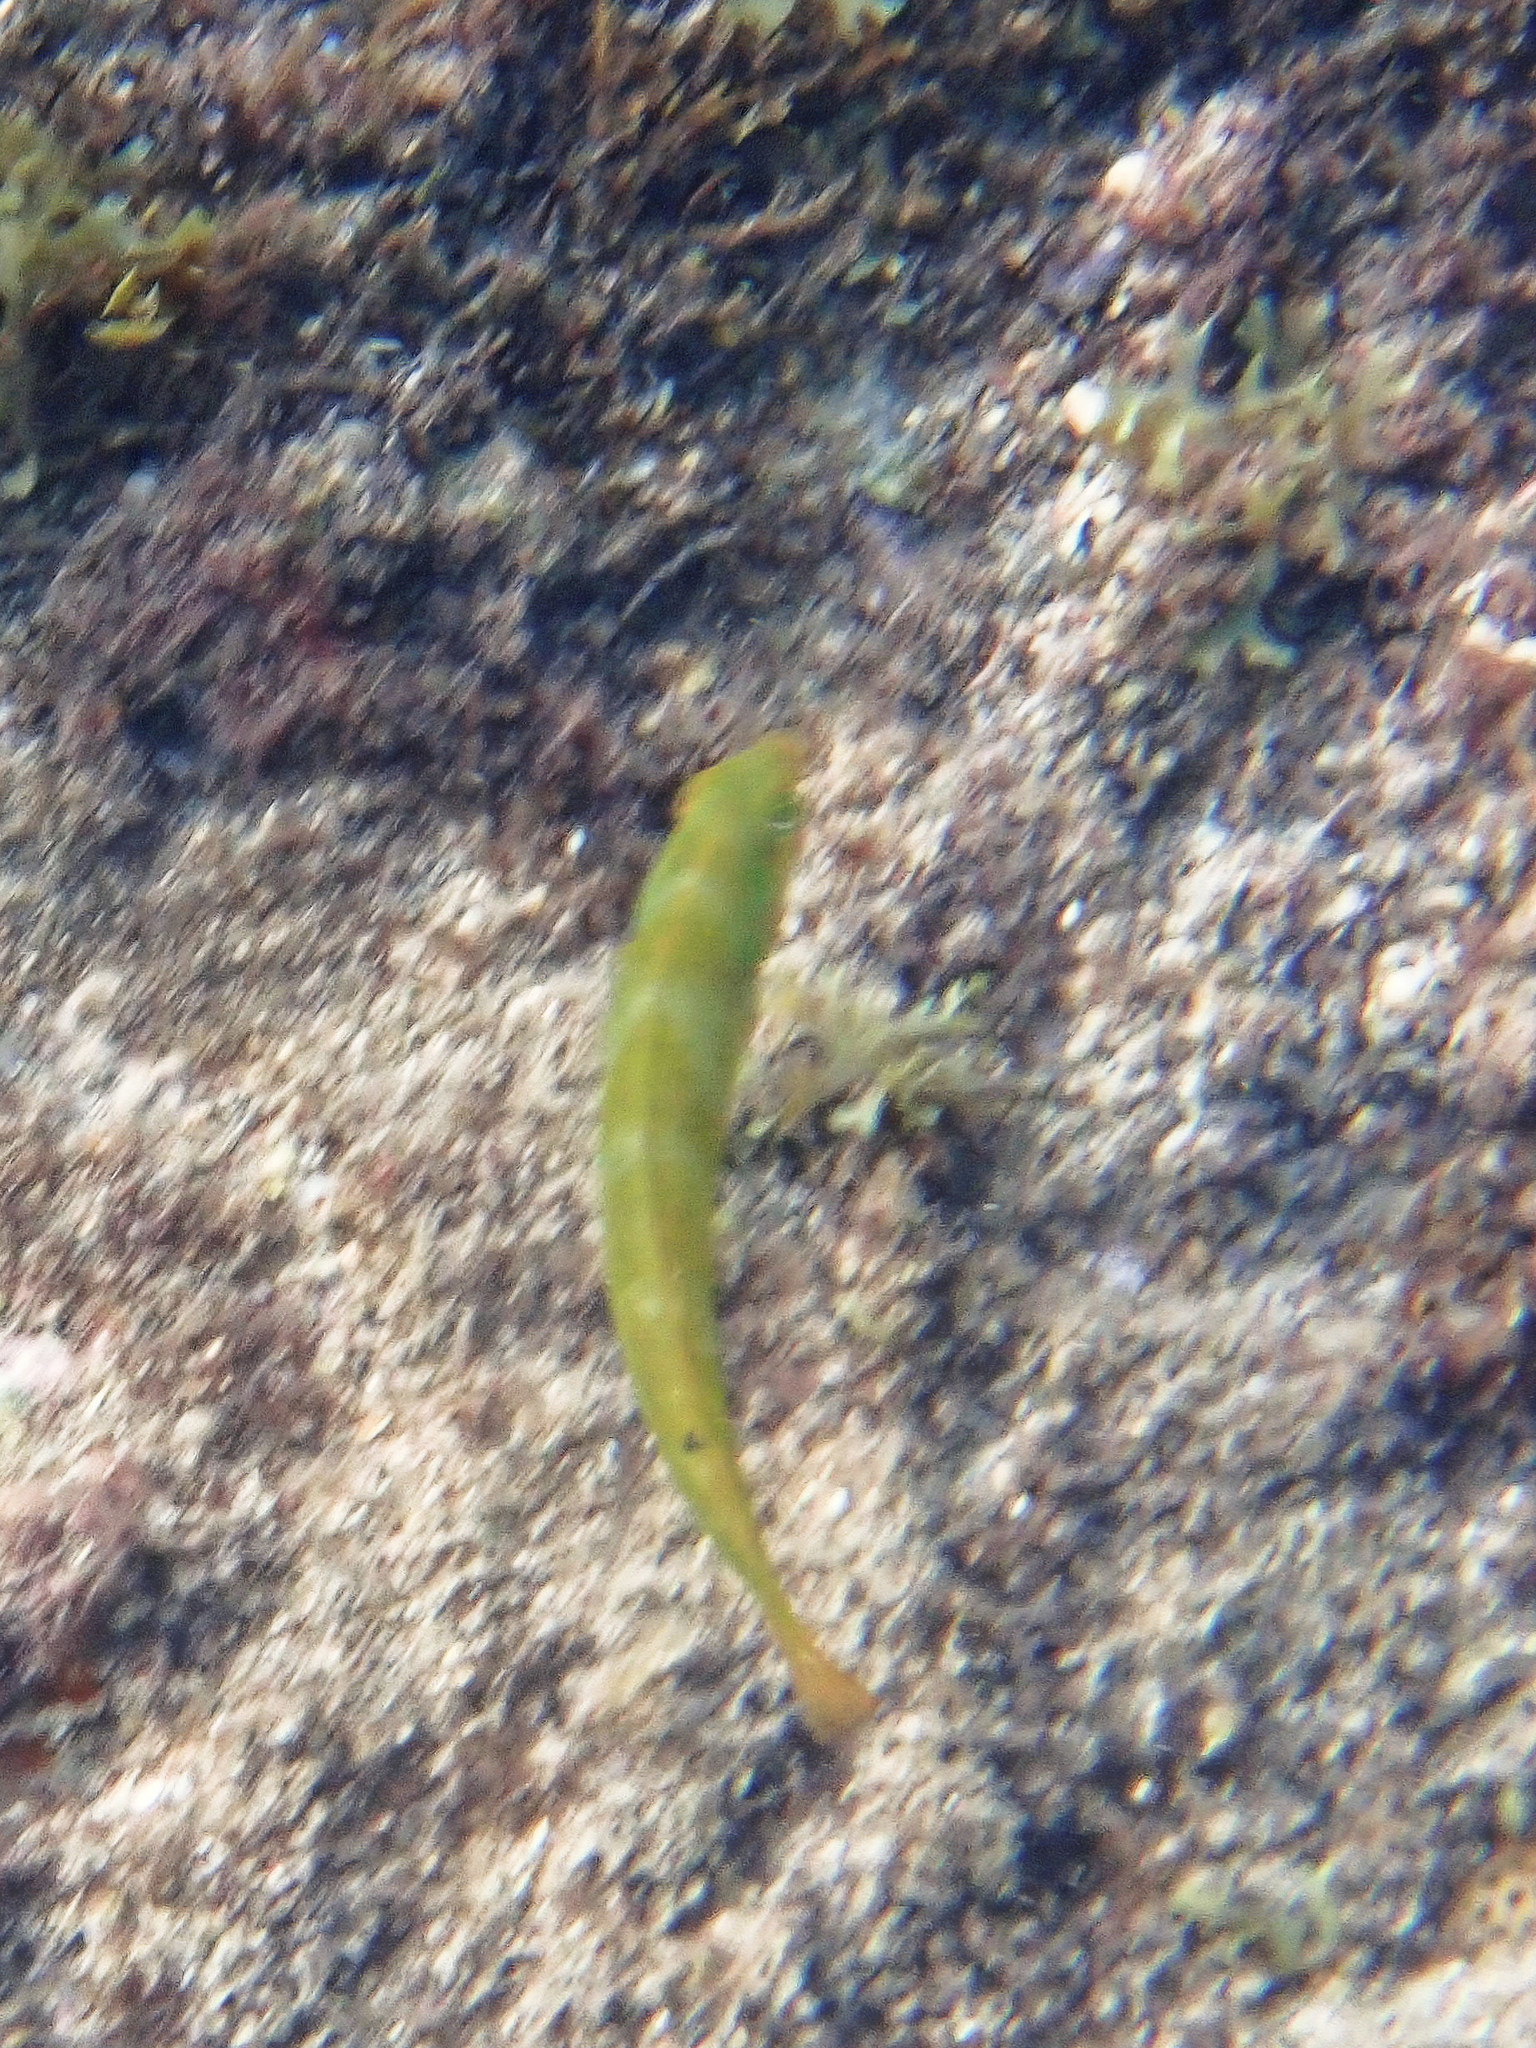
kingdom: Animalia
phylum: Chordata
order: Perciformes
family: Labridae
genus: Halichoeres
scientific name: Halichoeres poeyi
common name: Blackear wrasse
